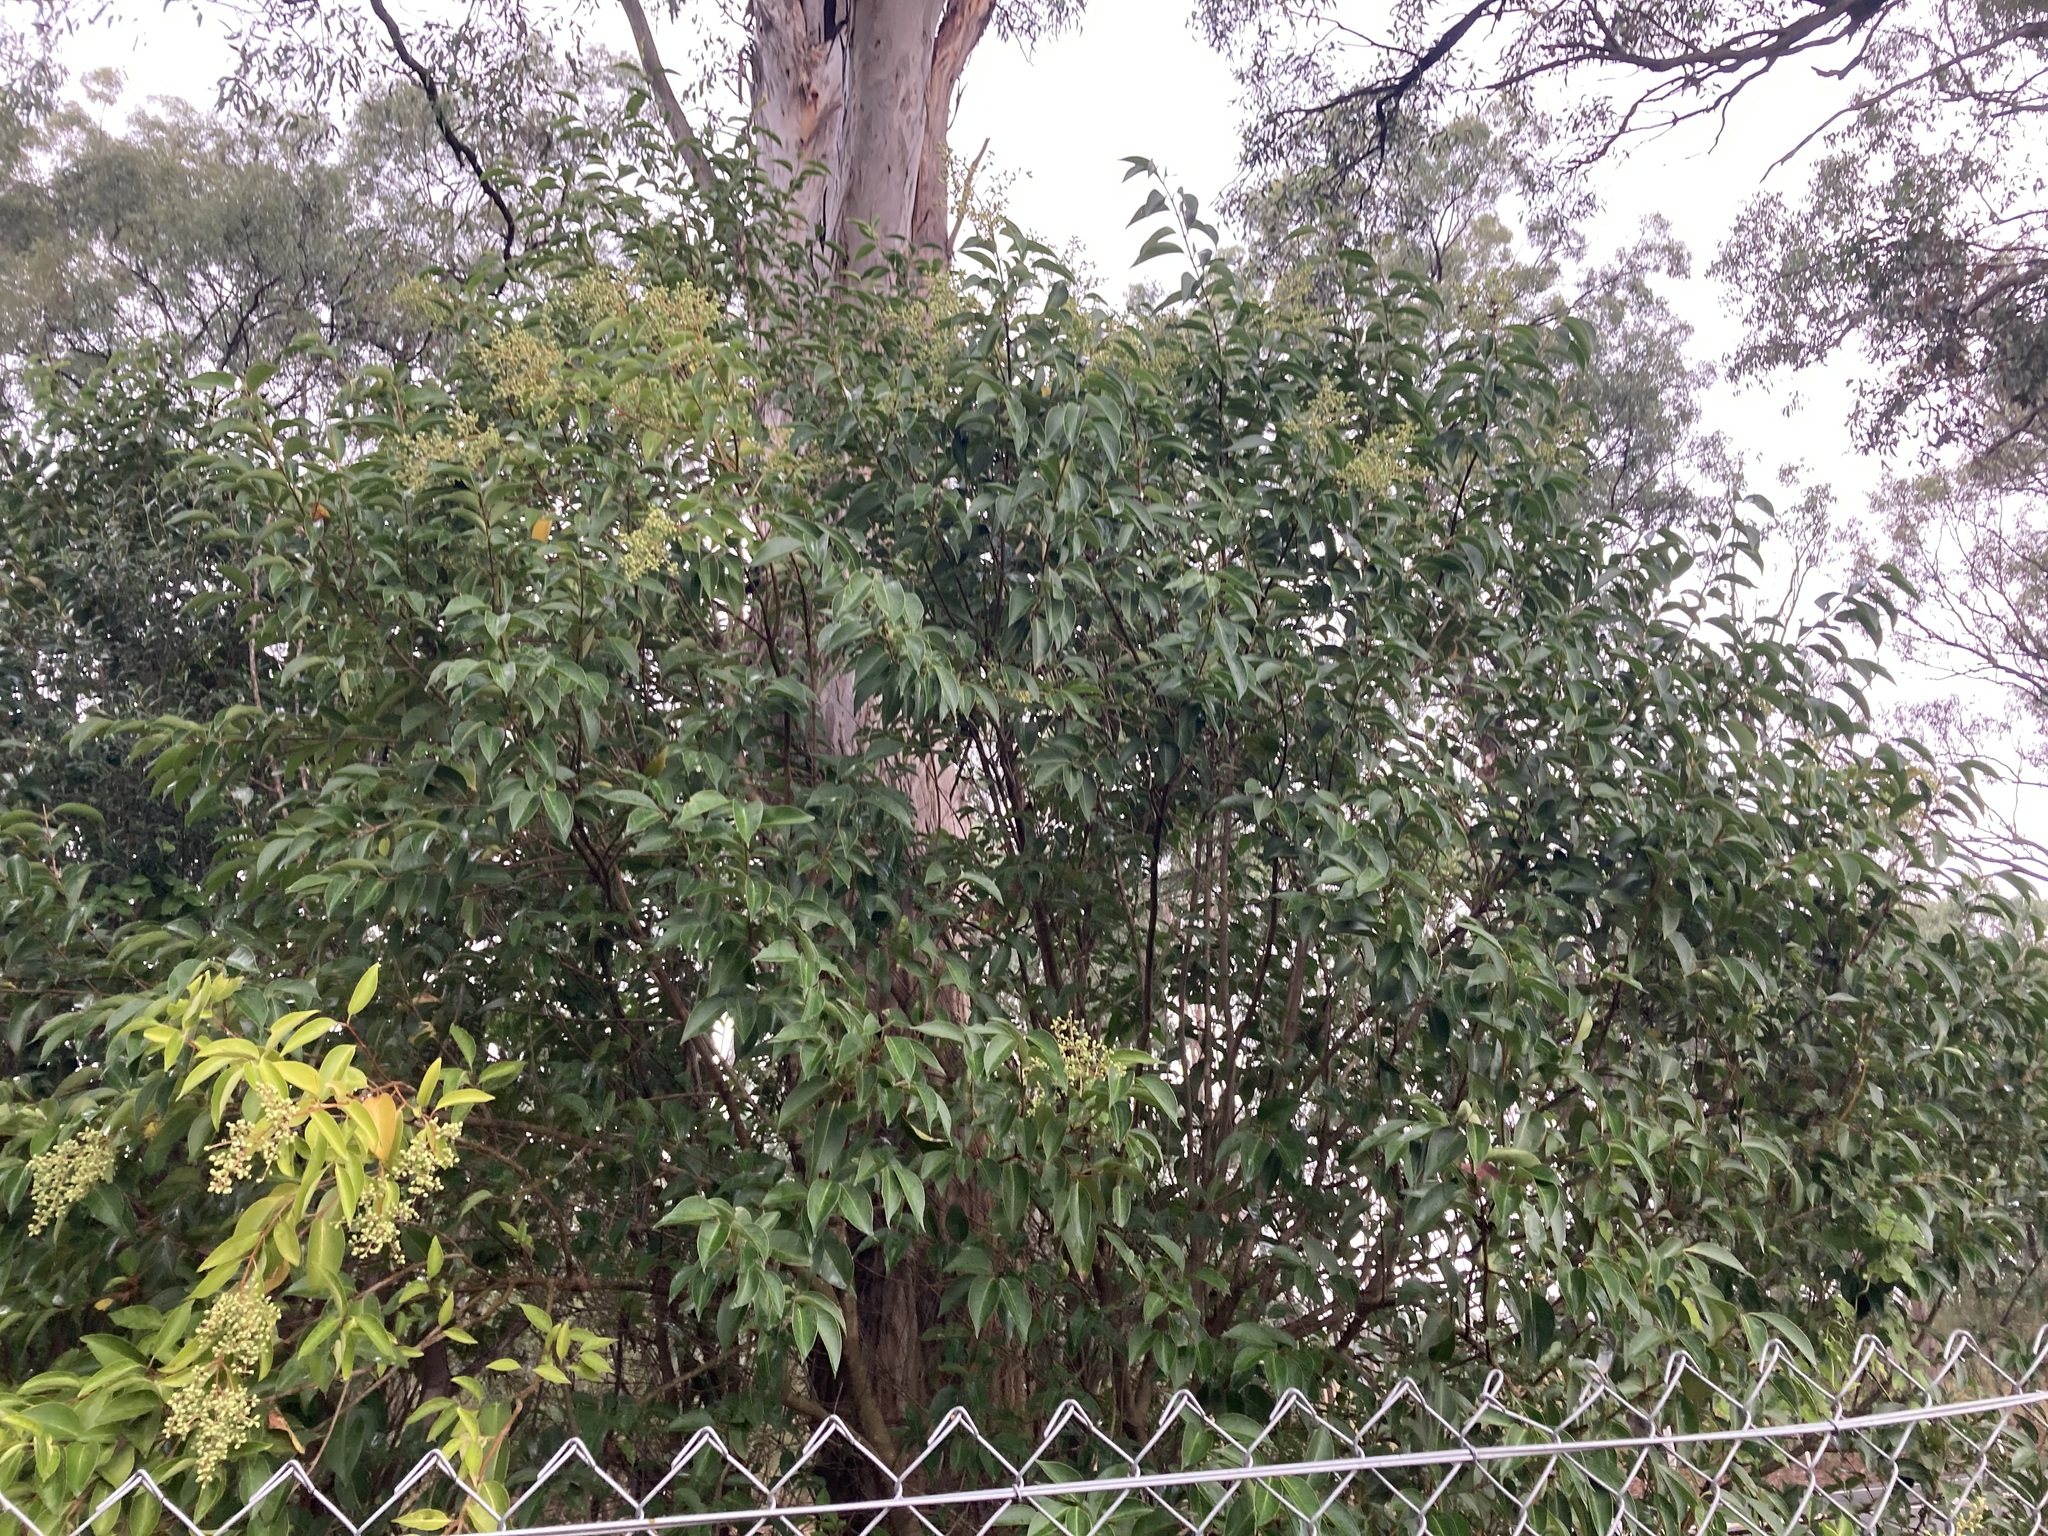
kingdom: Plantae
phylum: Tracheophyta
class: Magnoliopsida
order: Lamiales
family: Oleaceae
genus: Ligustrum
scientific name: Ligustrum lucidum
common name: Glossy privet
